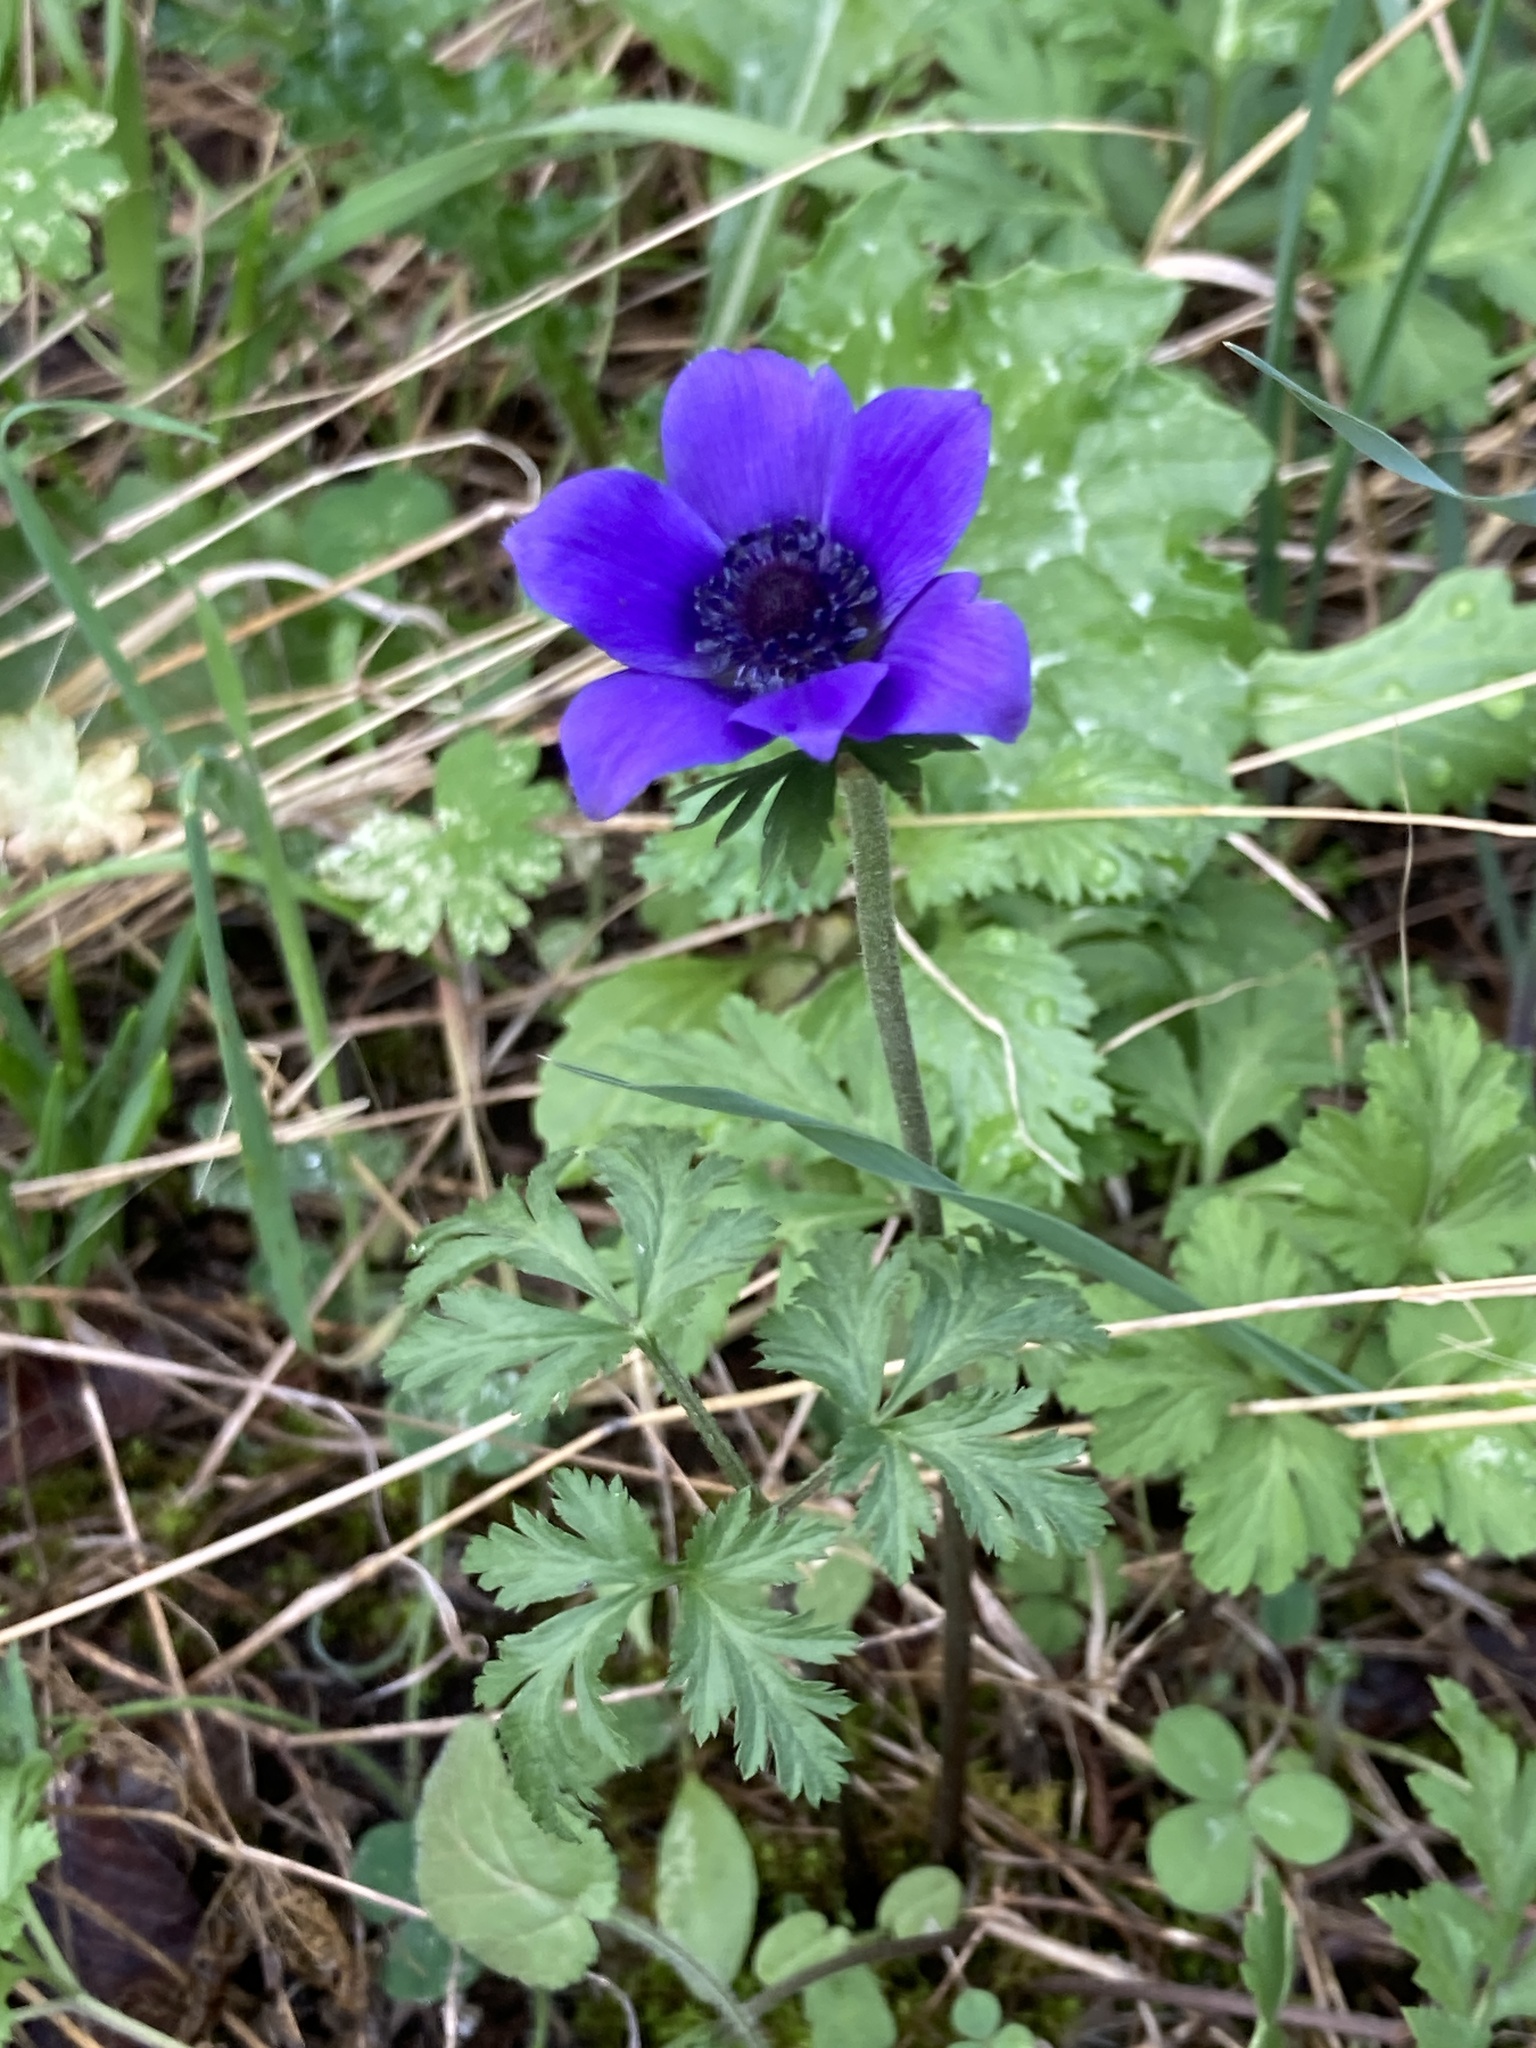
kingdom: Plantae
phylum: Tracheophyta
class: Magnoliopsida
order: Ranunculales
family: Ranunculaceae
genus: Anemone
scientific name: Anemone coronaria
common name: Poppy anemone
